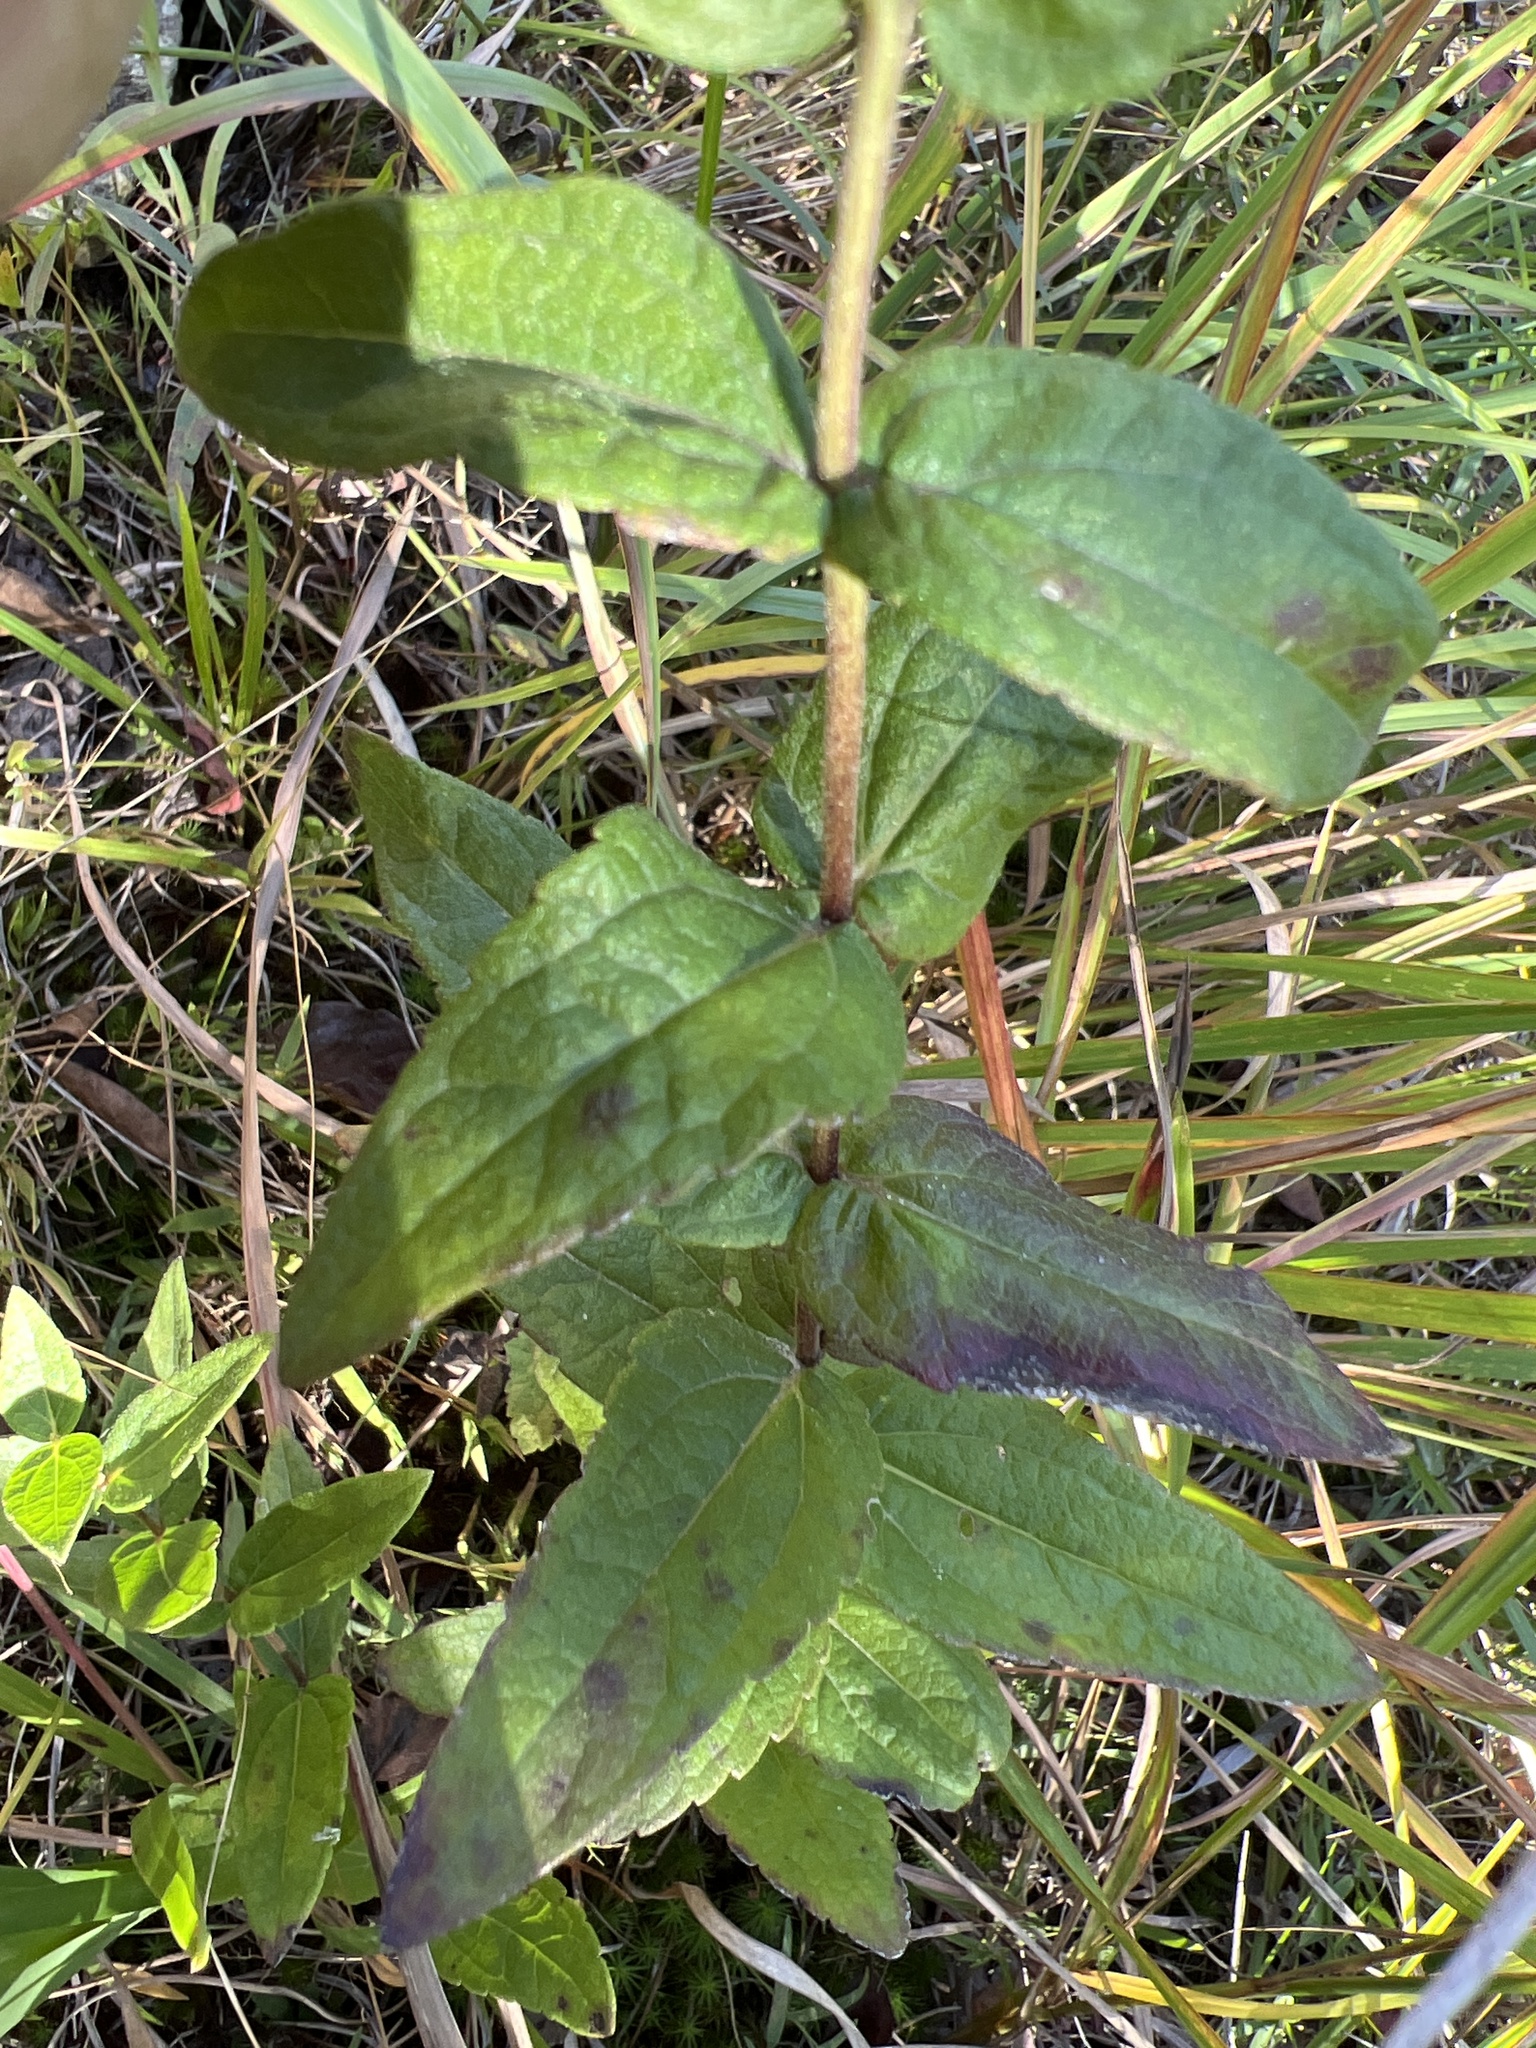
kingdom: Plantae
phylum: Tracheophyta
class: Magnoliopsida
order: Asterales
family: Asteraceae
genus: Eupatorium
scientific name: Eupatorium pilosum
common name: Rough boneset
